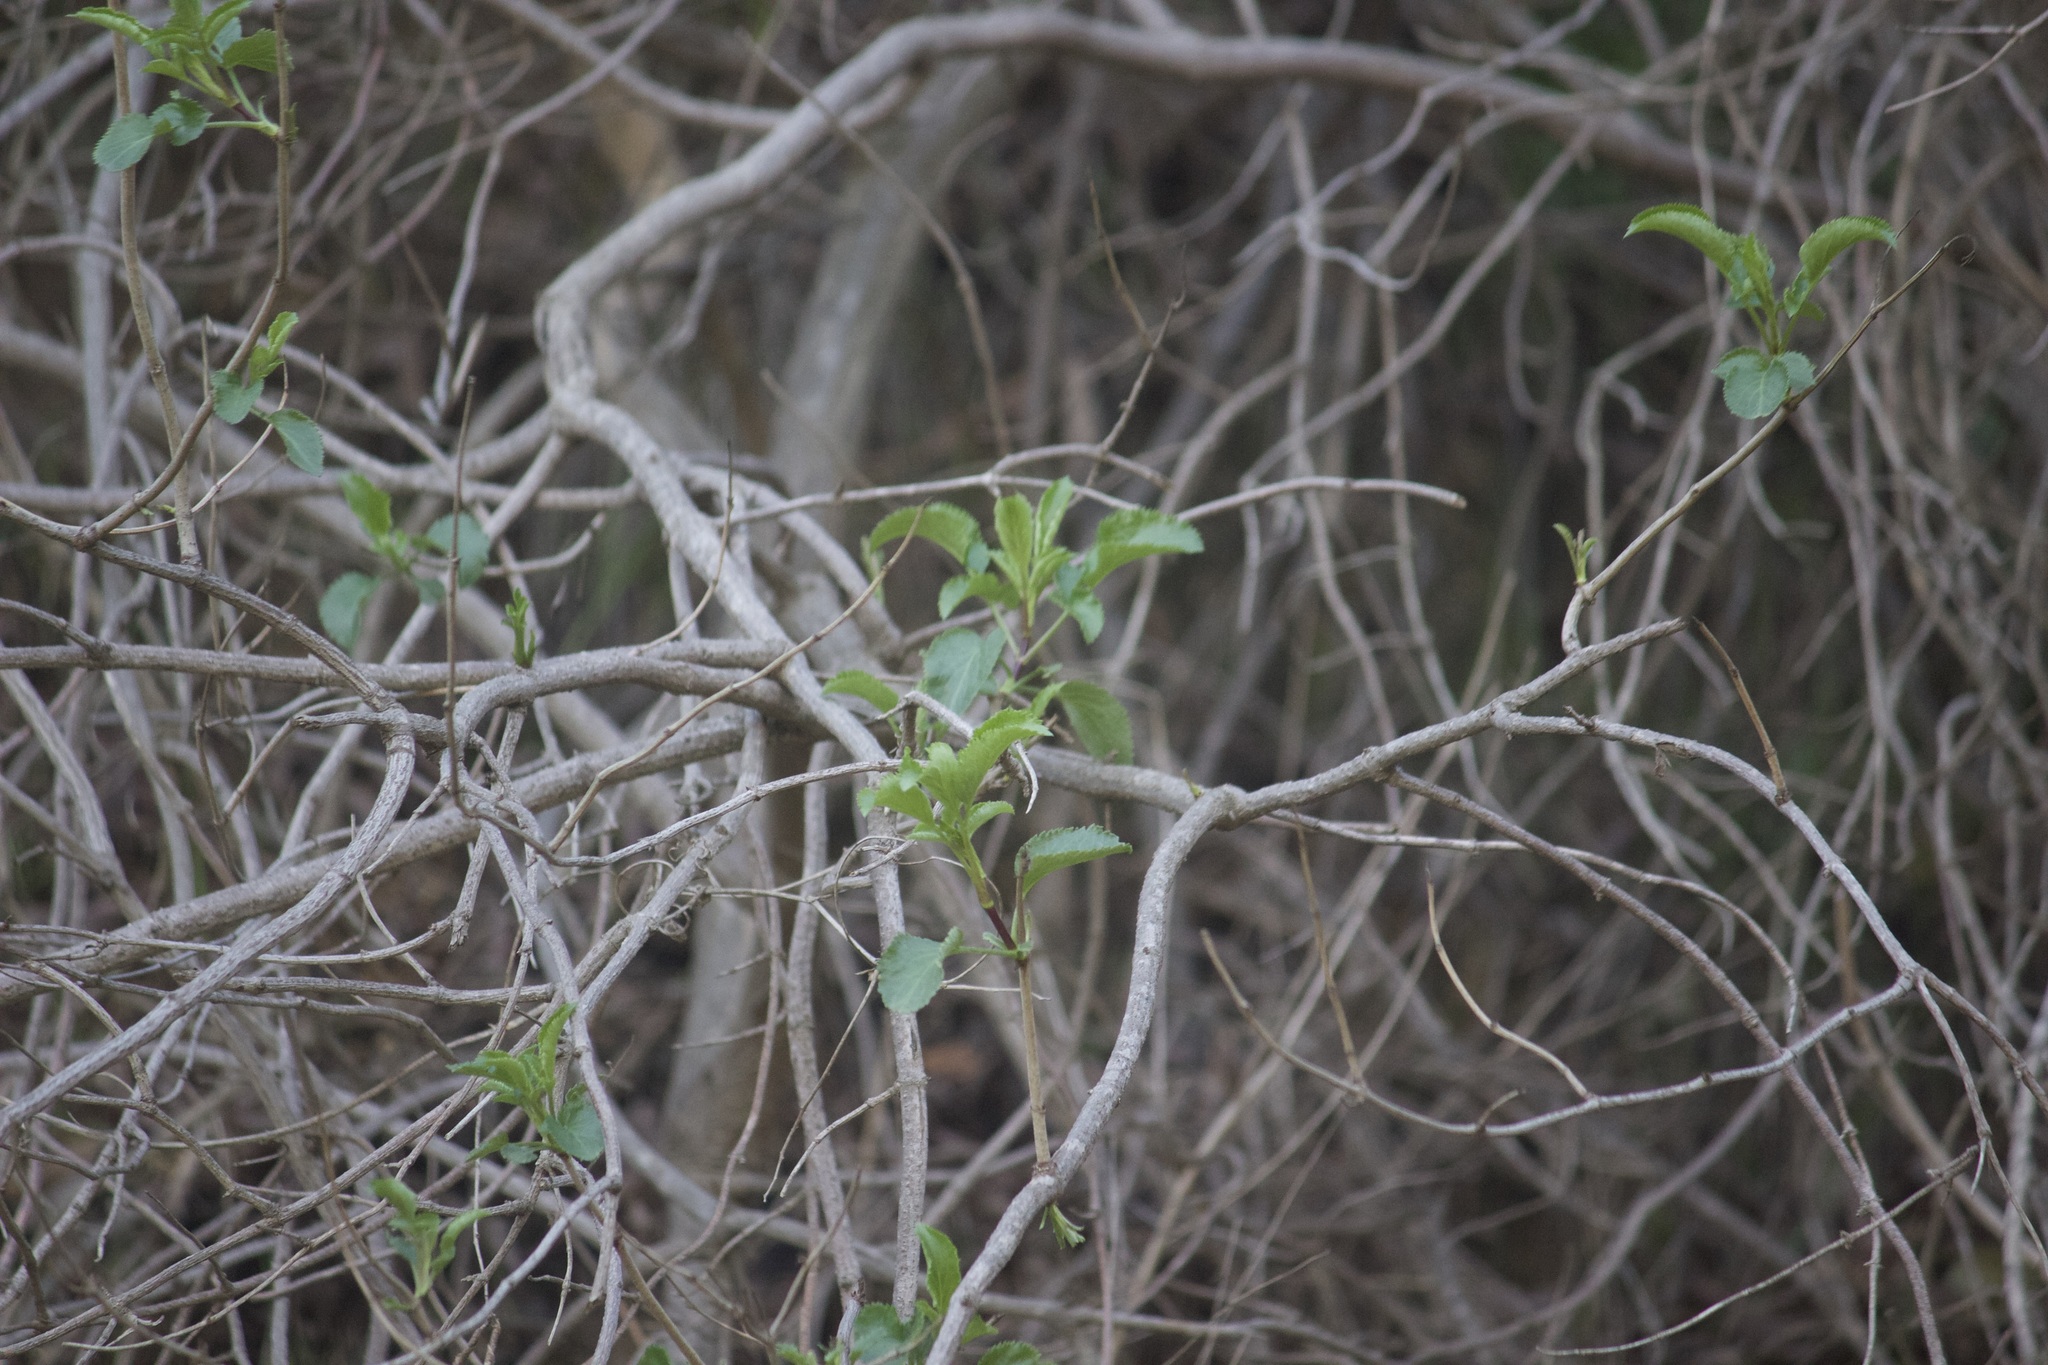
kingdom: Plantae
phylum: Tracheophyta
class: Magnoliopsida
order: Dipsacales
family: Viburnaceae
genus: Sambucus
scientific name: Sambucus cerulea
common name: Blue elder
